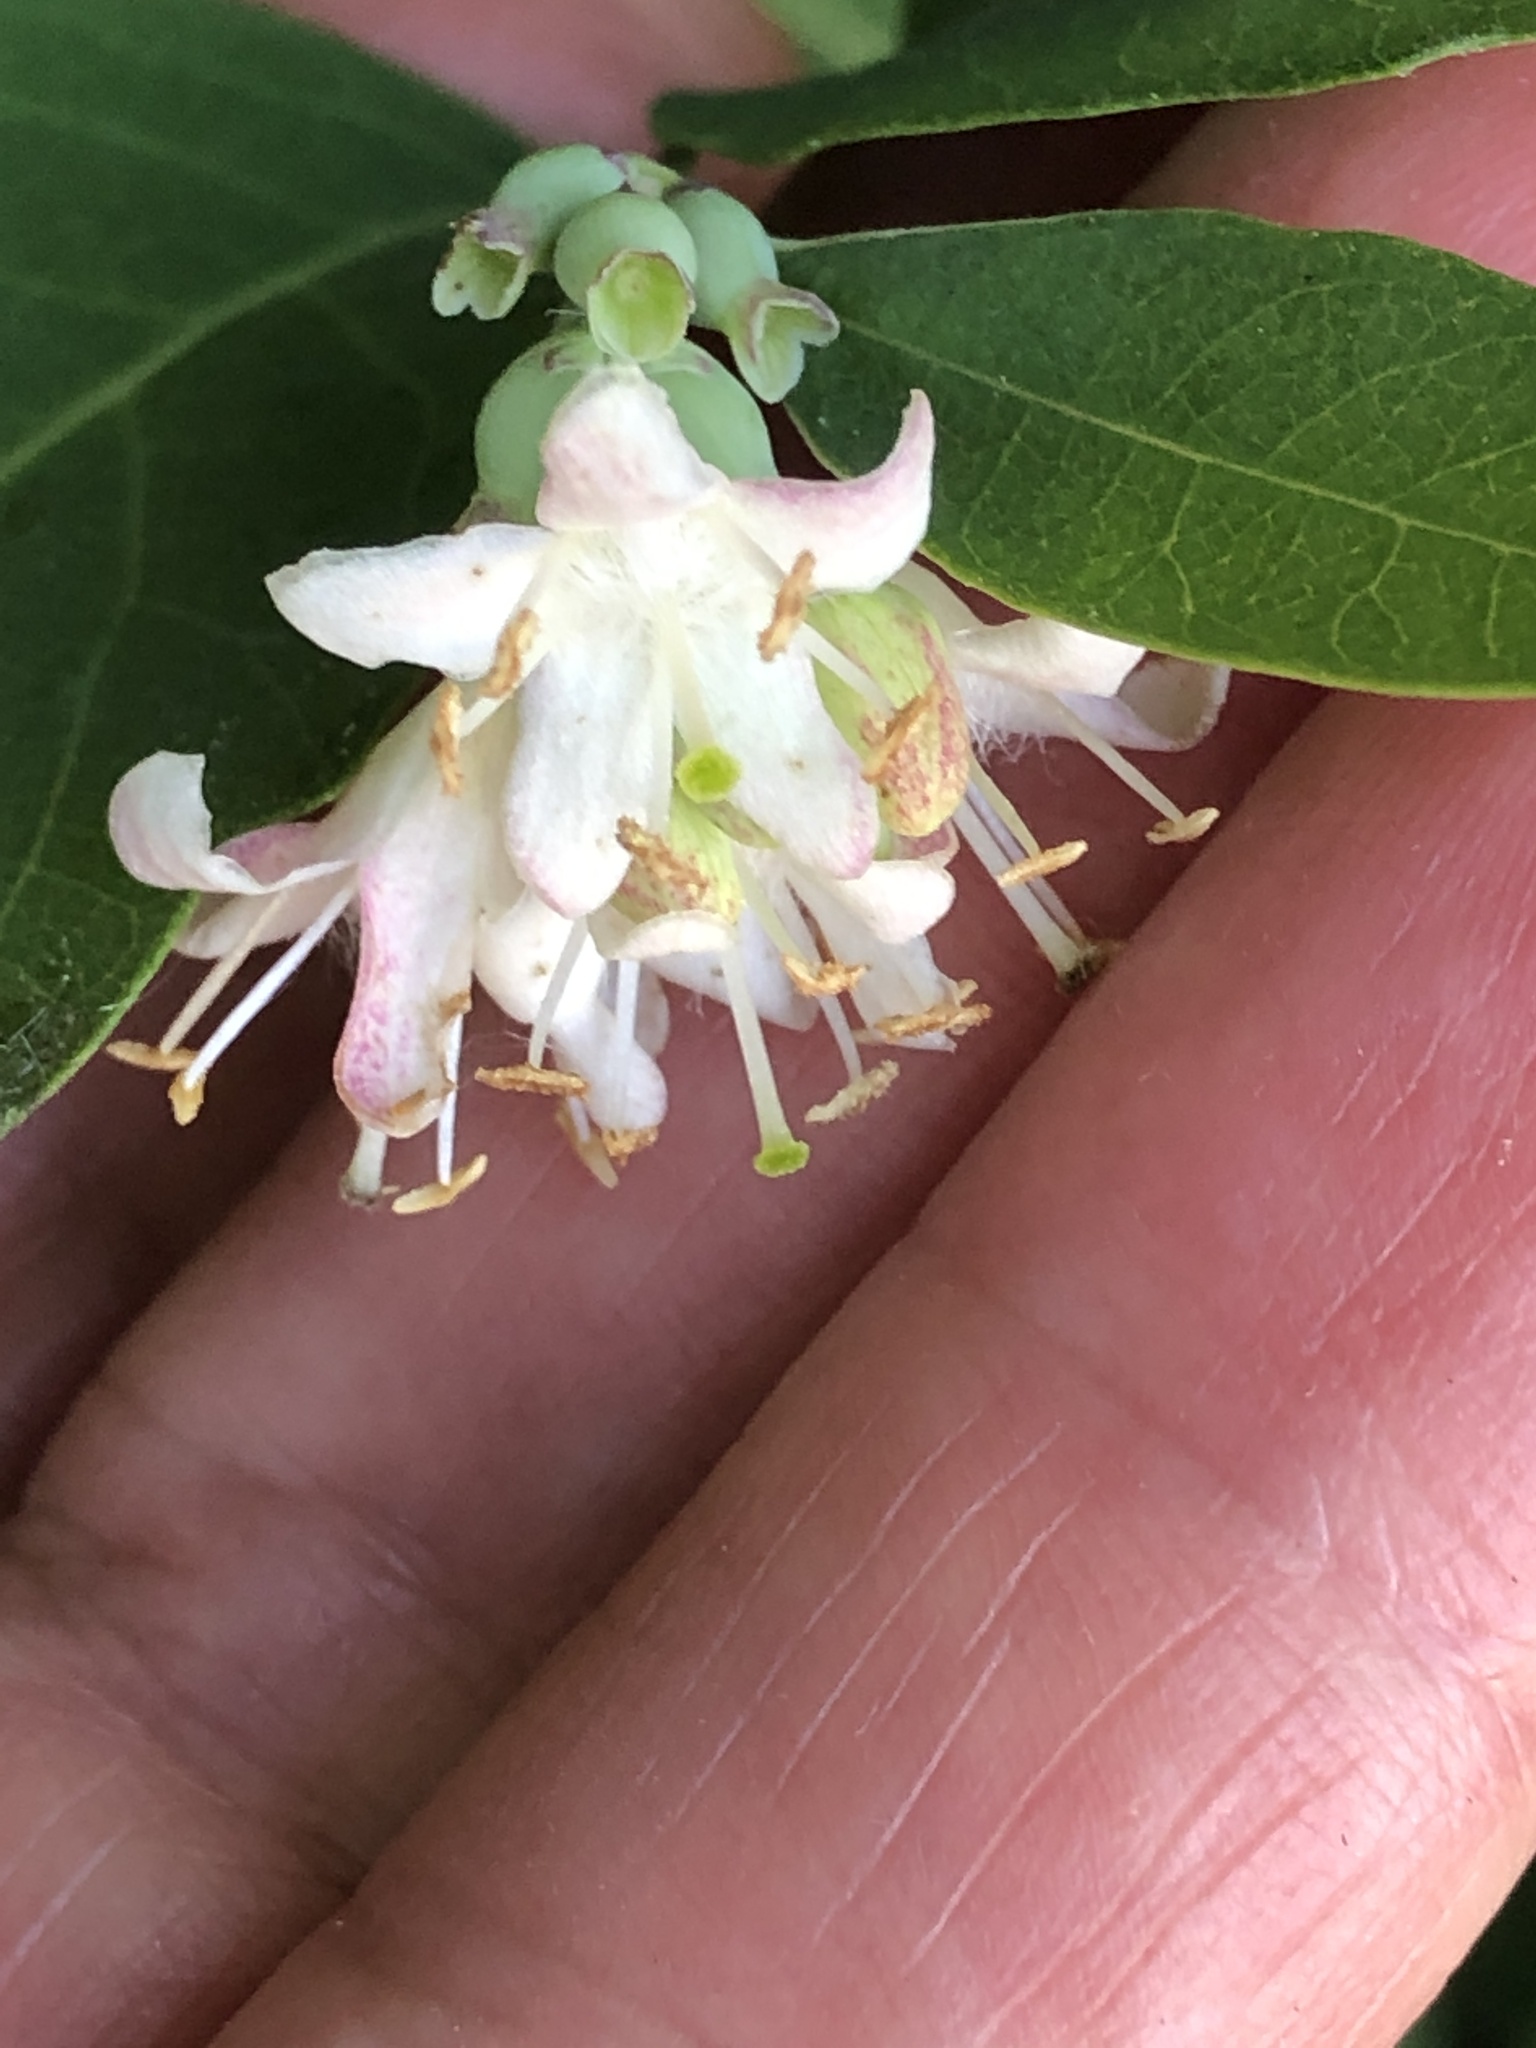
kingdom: Plantae
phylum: Tracheophyta
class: Magnoliopsida
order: Dipsacales
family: Caprifoliaceae
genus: Symphoricarpos
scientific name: Symphoricarpos occidentalis
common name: Wolfberry
